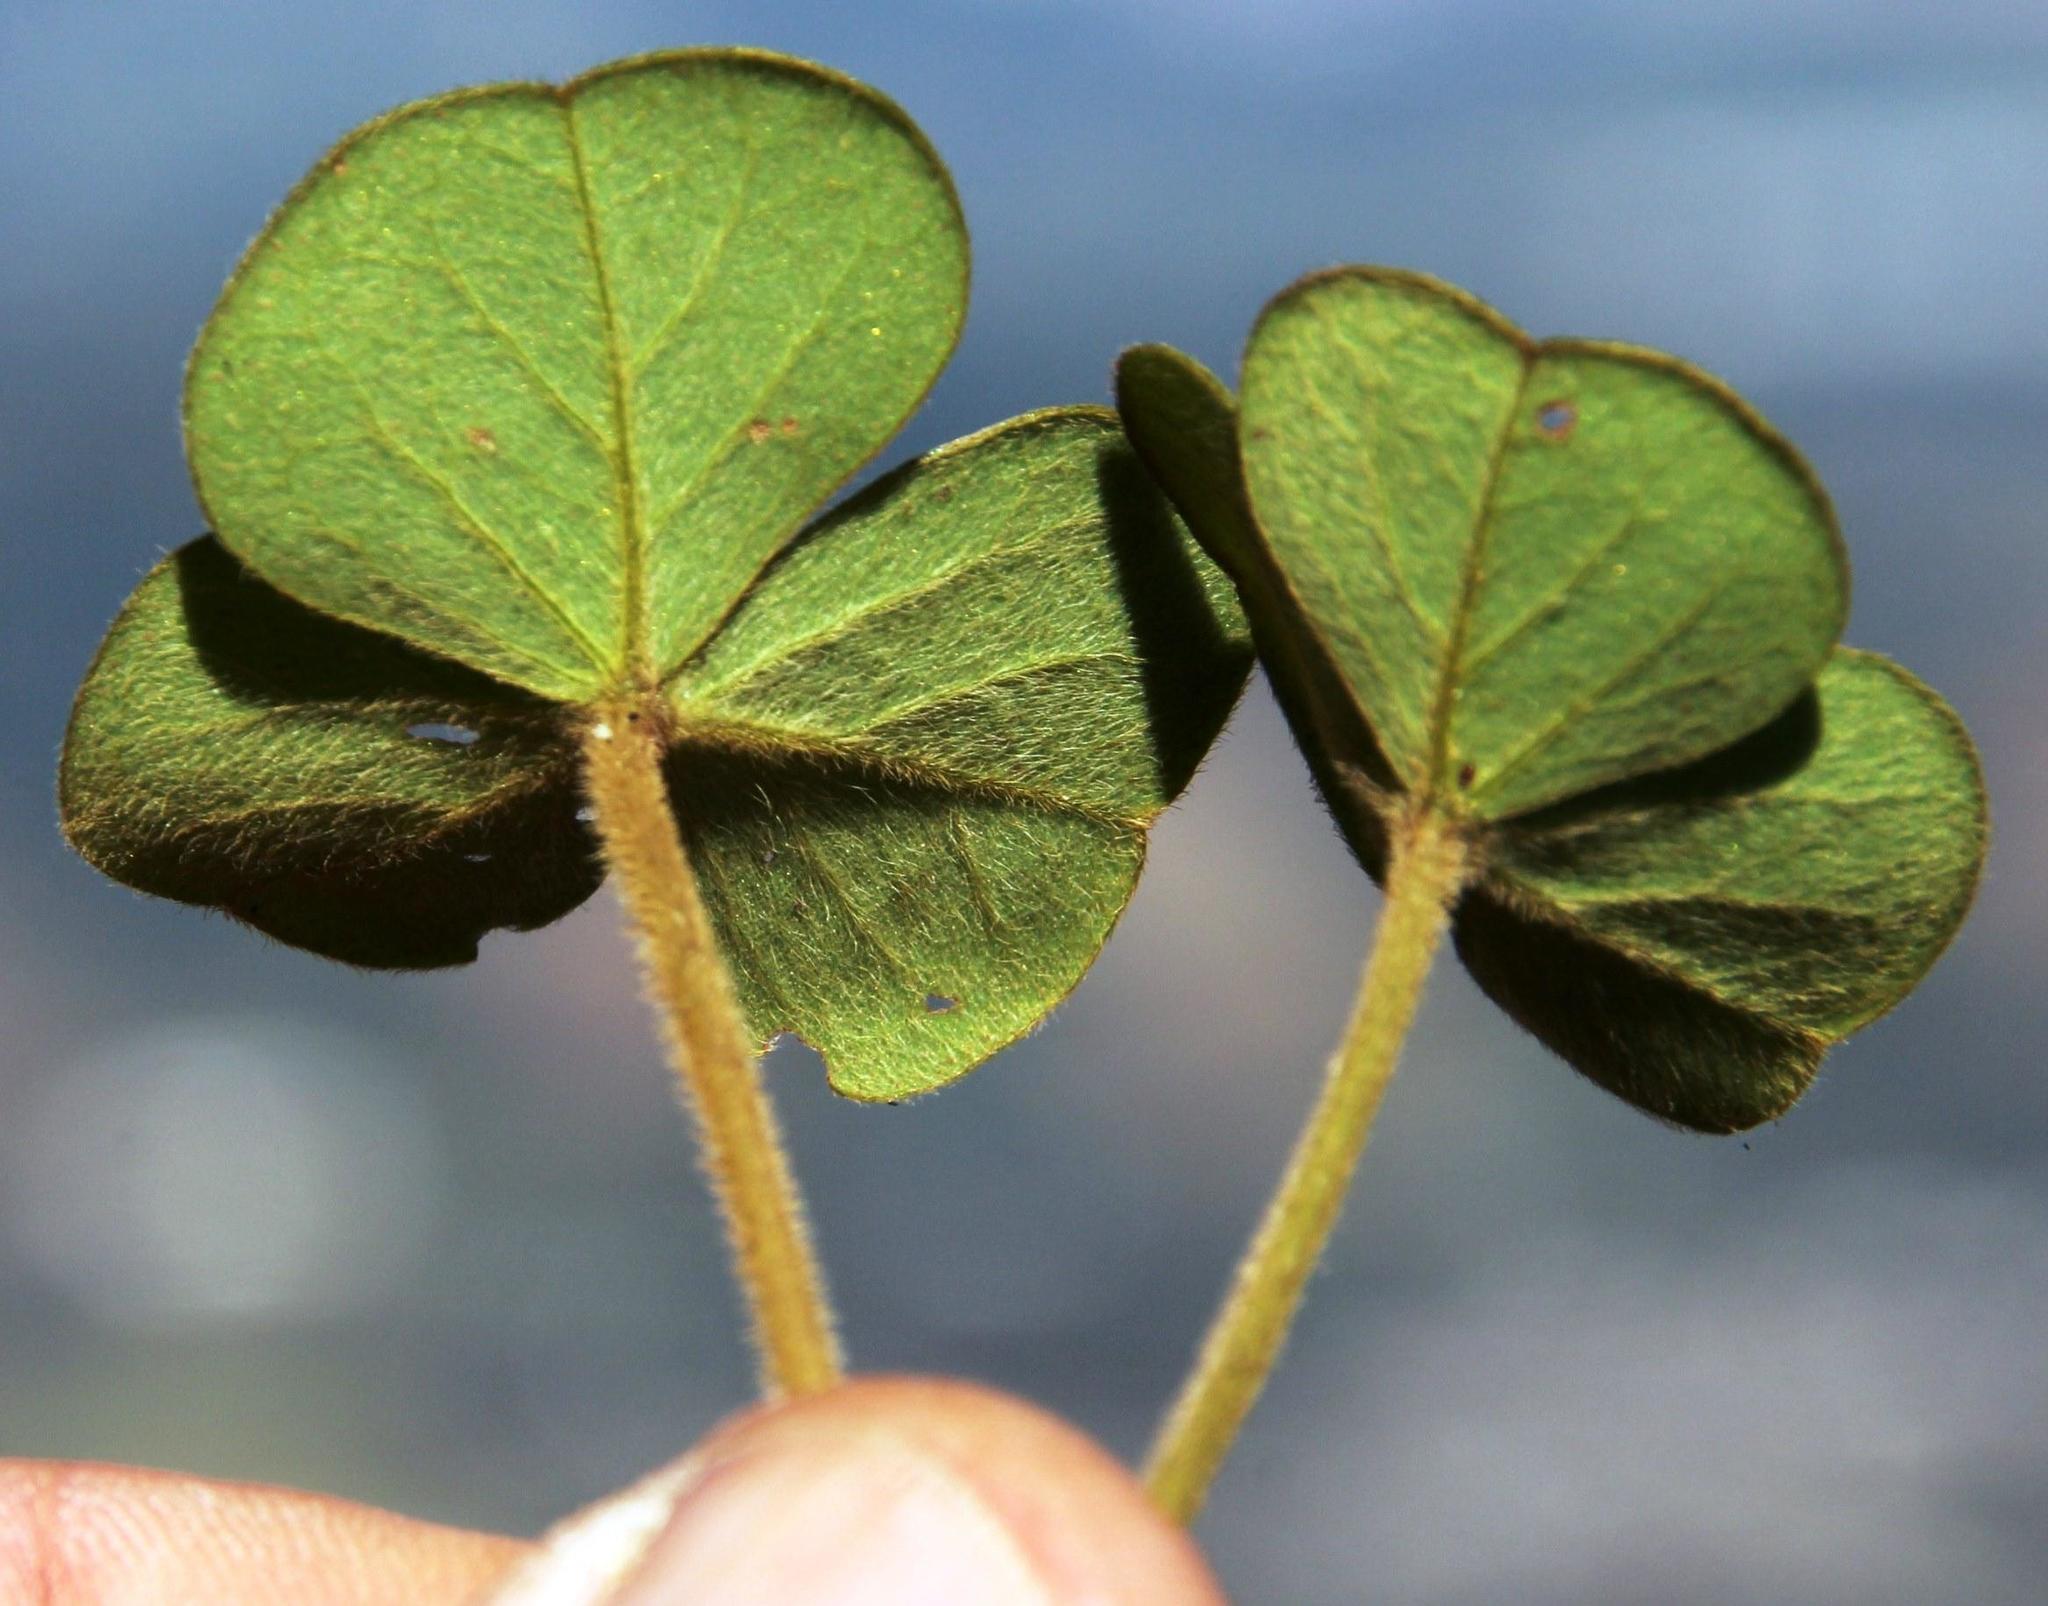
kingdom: Plantae
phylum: Tracheophyta
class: Magnoliopsida
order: Oxalidales
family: Oxalidaceae
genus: Oxalis
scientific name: Oxalis truncatula
